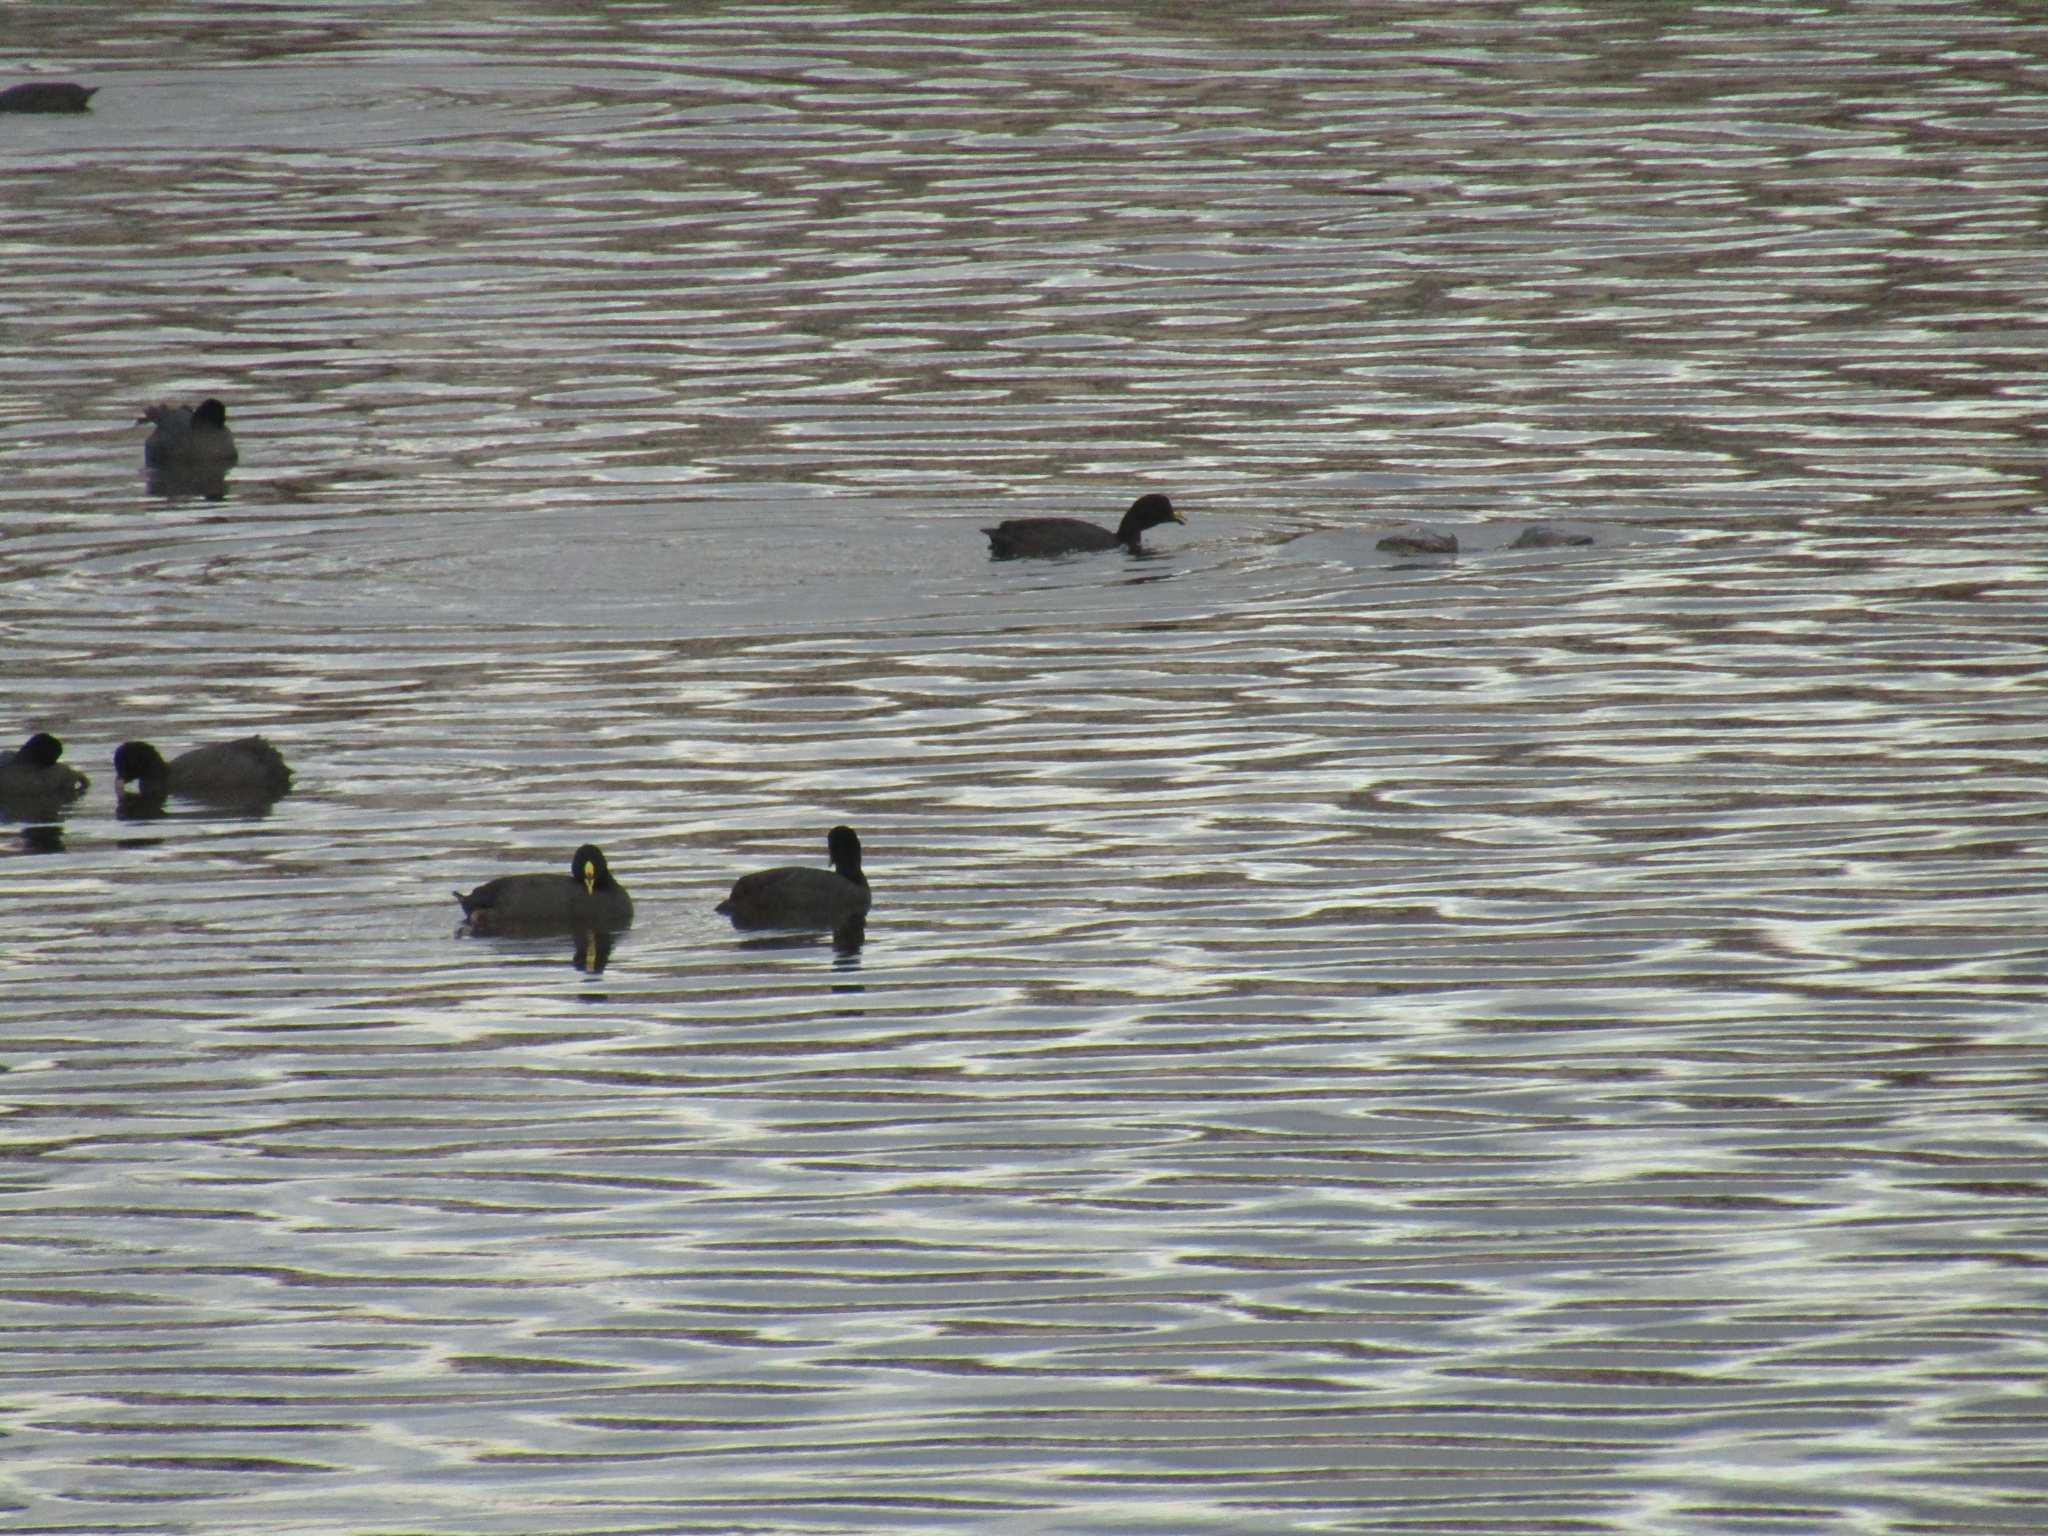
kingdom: Animalia
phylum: Chordata
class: Aves
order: Gruiformes
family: Rallidae
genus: Fulica
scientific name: Fulica armillata
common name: Red-gartered coot
